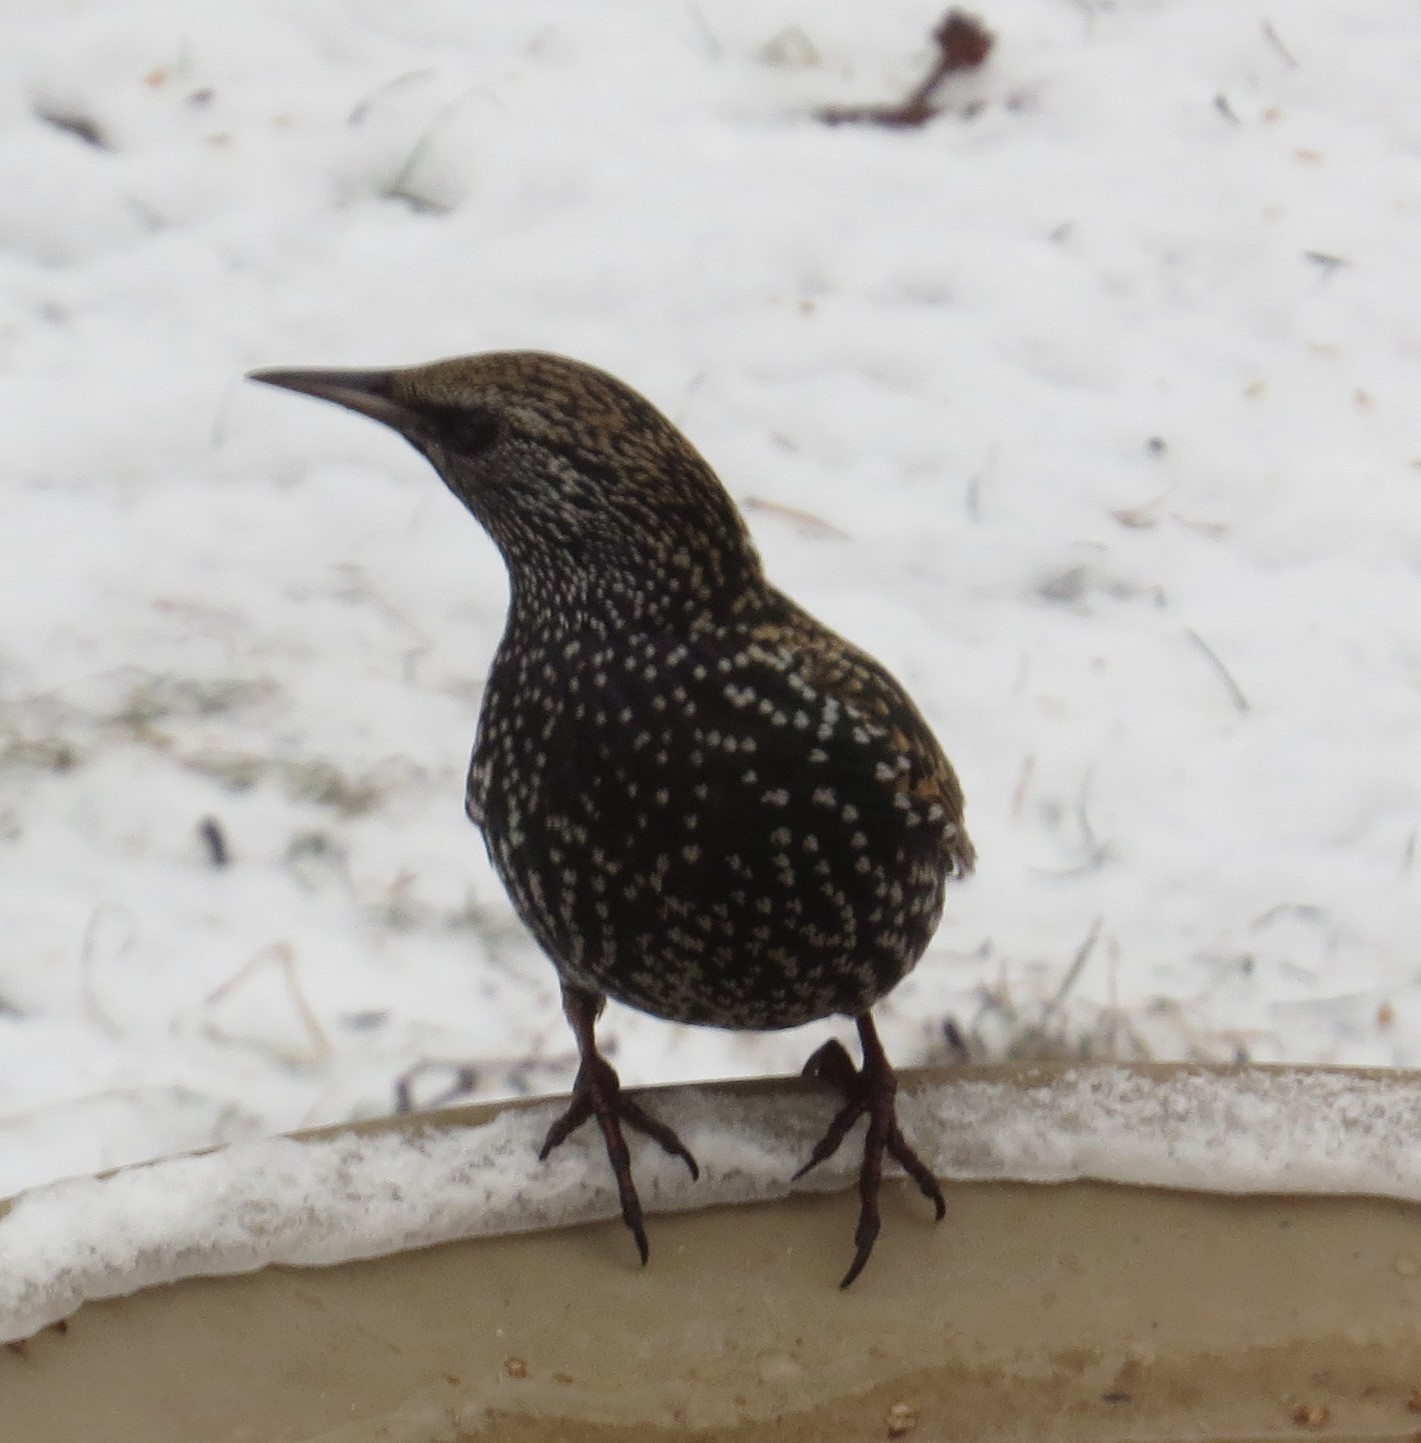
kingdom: Animalia
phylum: Chordata
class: Aves
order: Passeriformes
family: Sturnidae
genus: Sturnus
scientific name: Sturnus vulgaris
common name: Common starling
